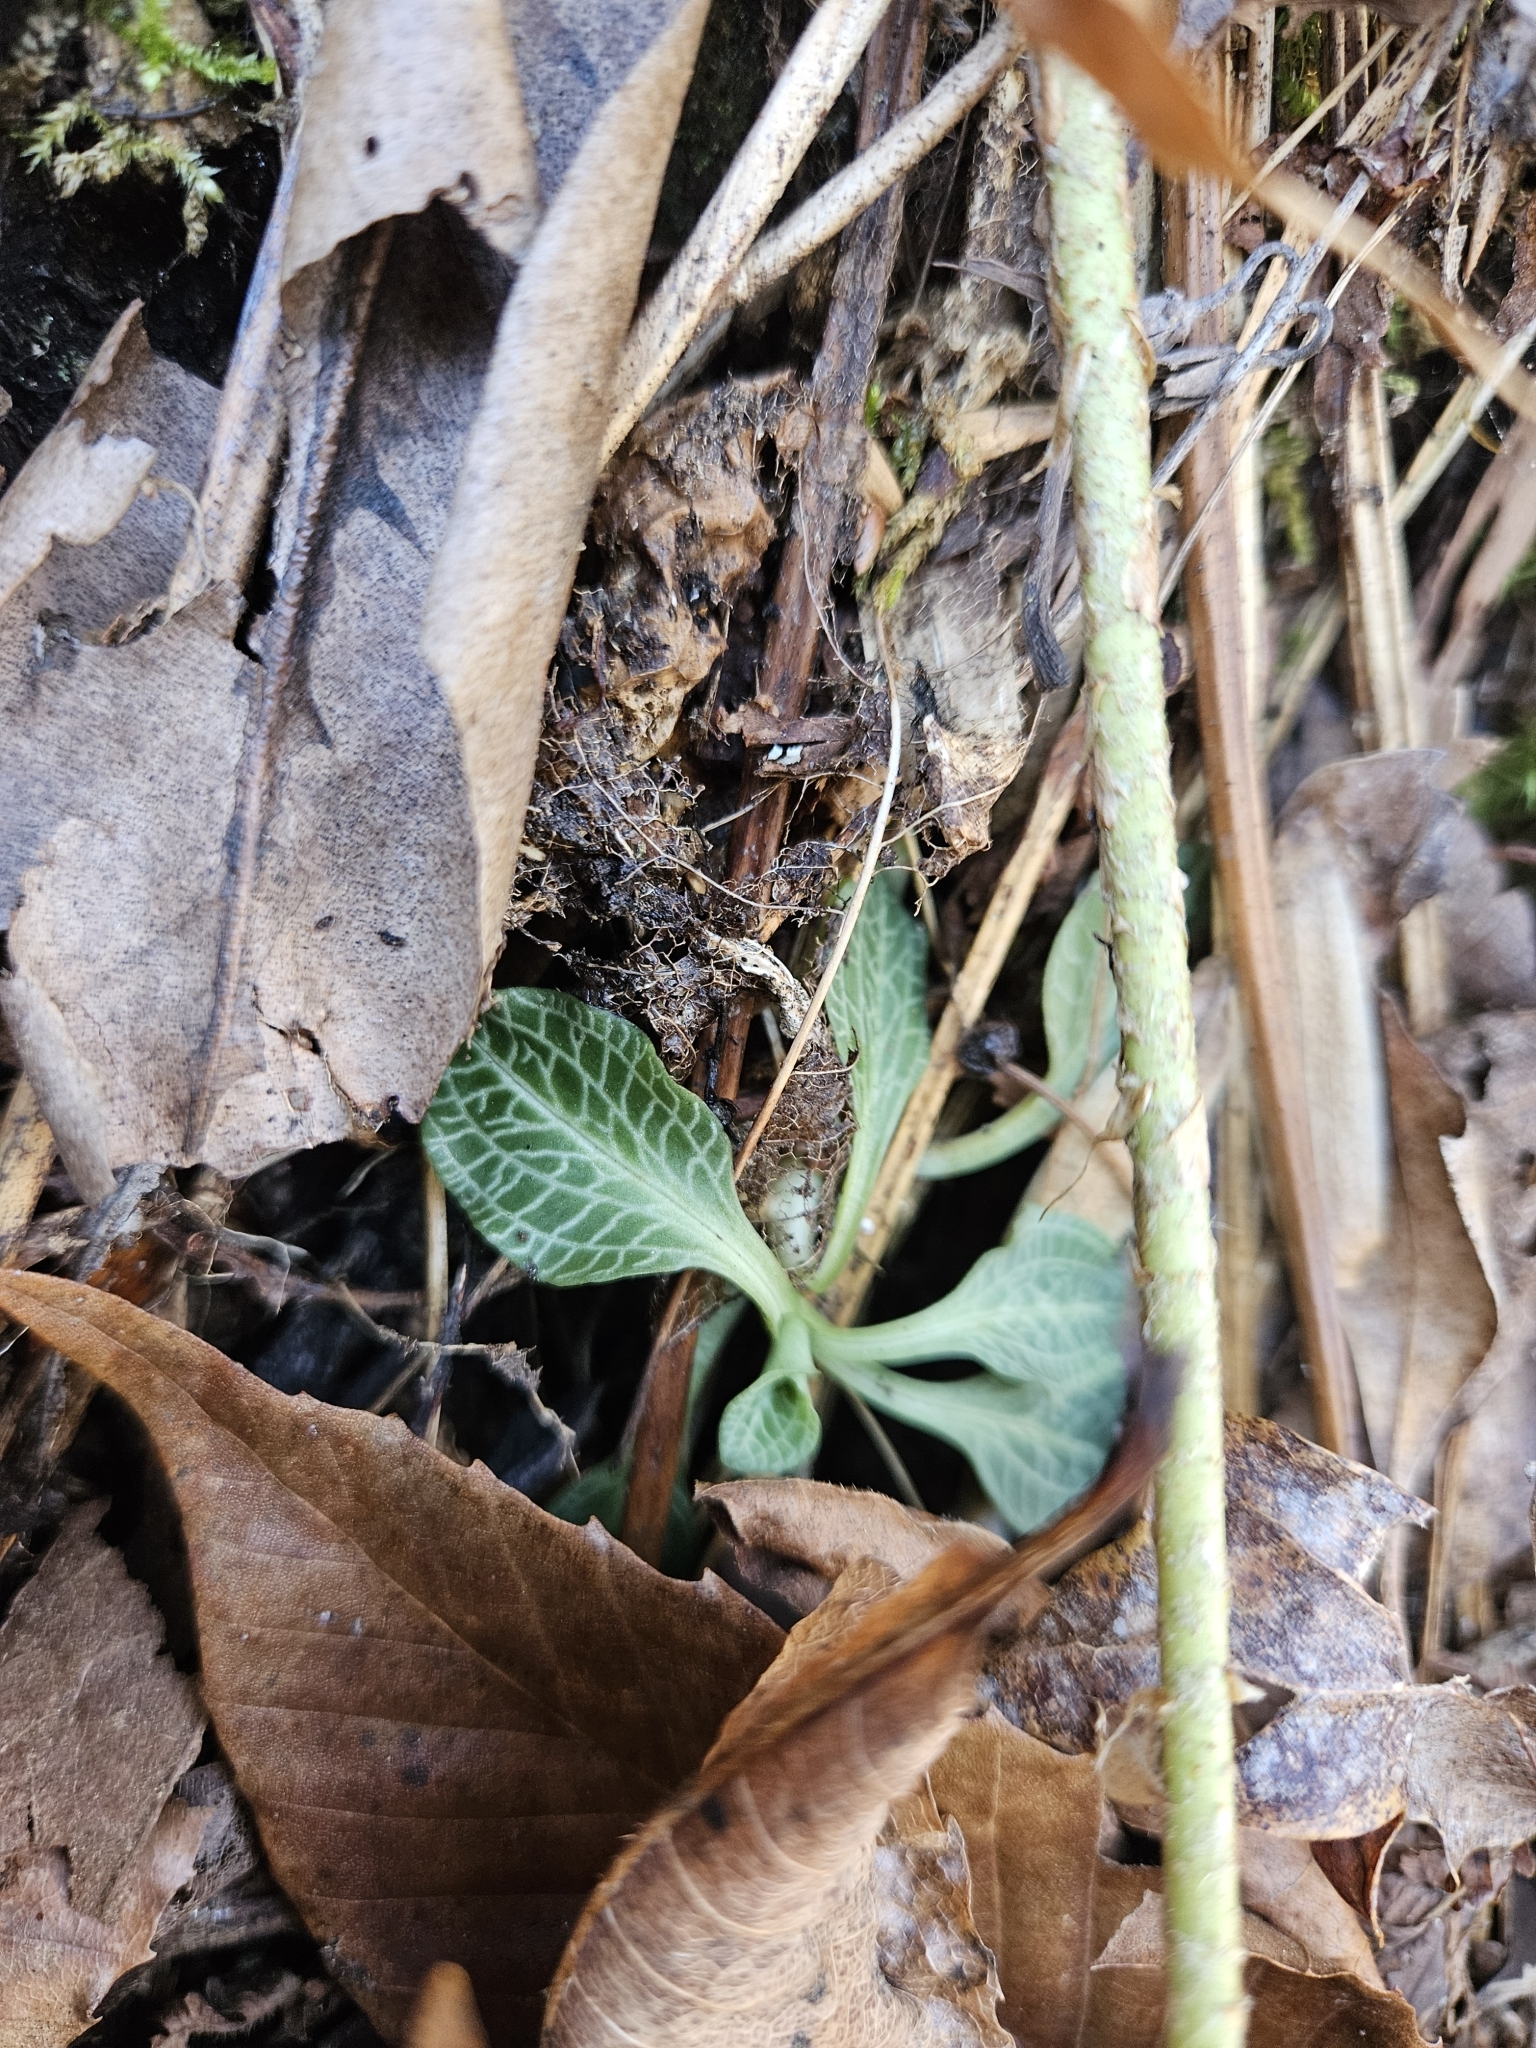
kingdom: Plantae
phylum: Tracheophyta
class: Liliopsida
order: Asparagales
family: Orchidaceae
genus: Goodyera
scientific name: Goodyera pubescens
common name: Downy rattlesnake-plantain
